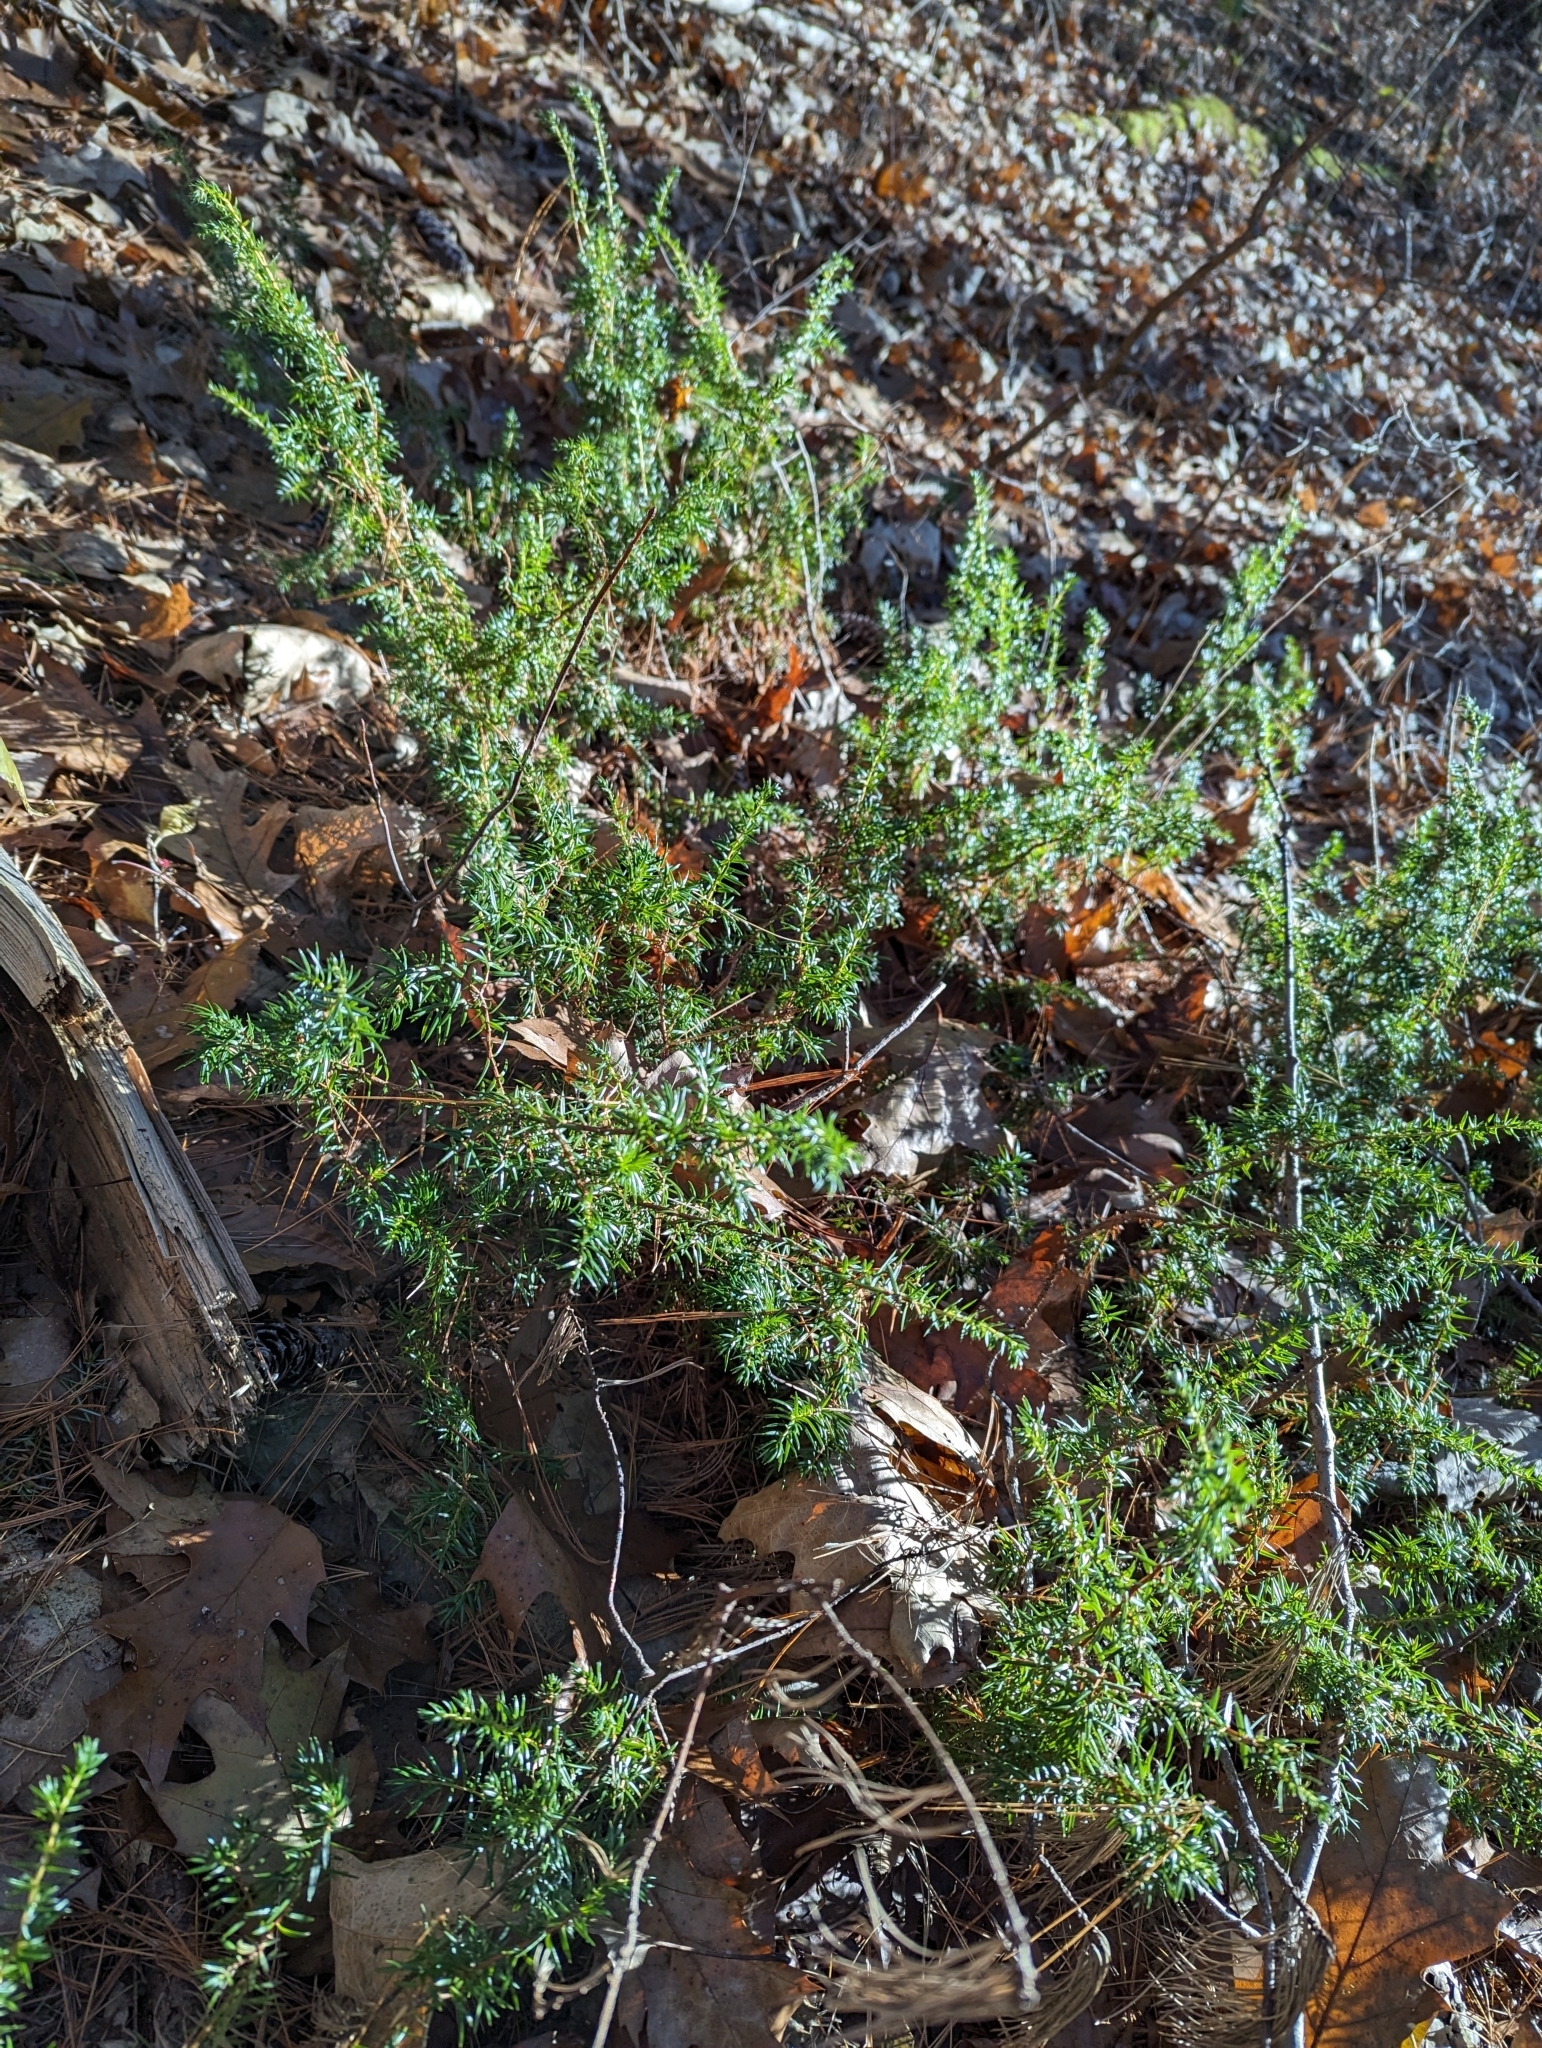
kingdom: Plantae
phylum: Tracheophyta
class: Pinopsida
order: Pinales
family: Cupressaceae
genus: Juniperus
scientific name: Juniperus communis
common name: Common juniper
